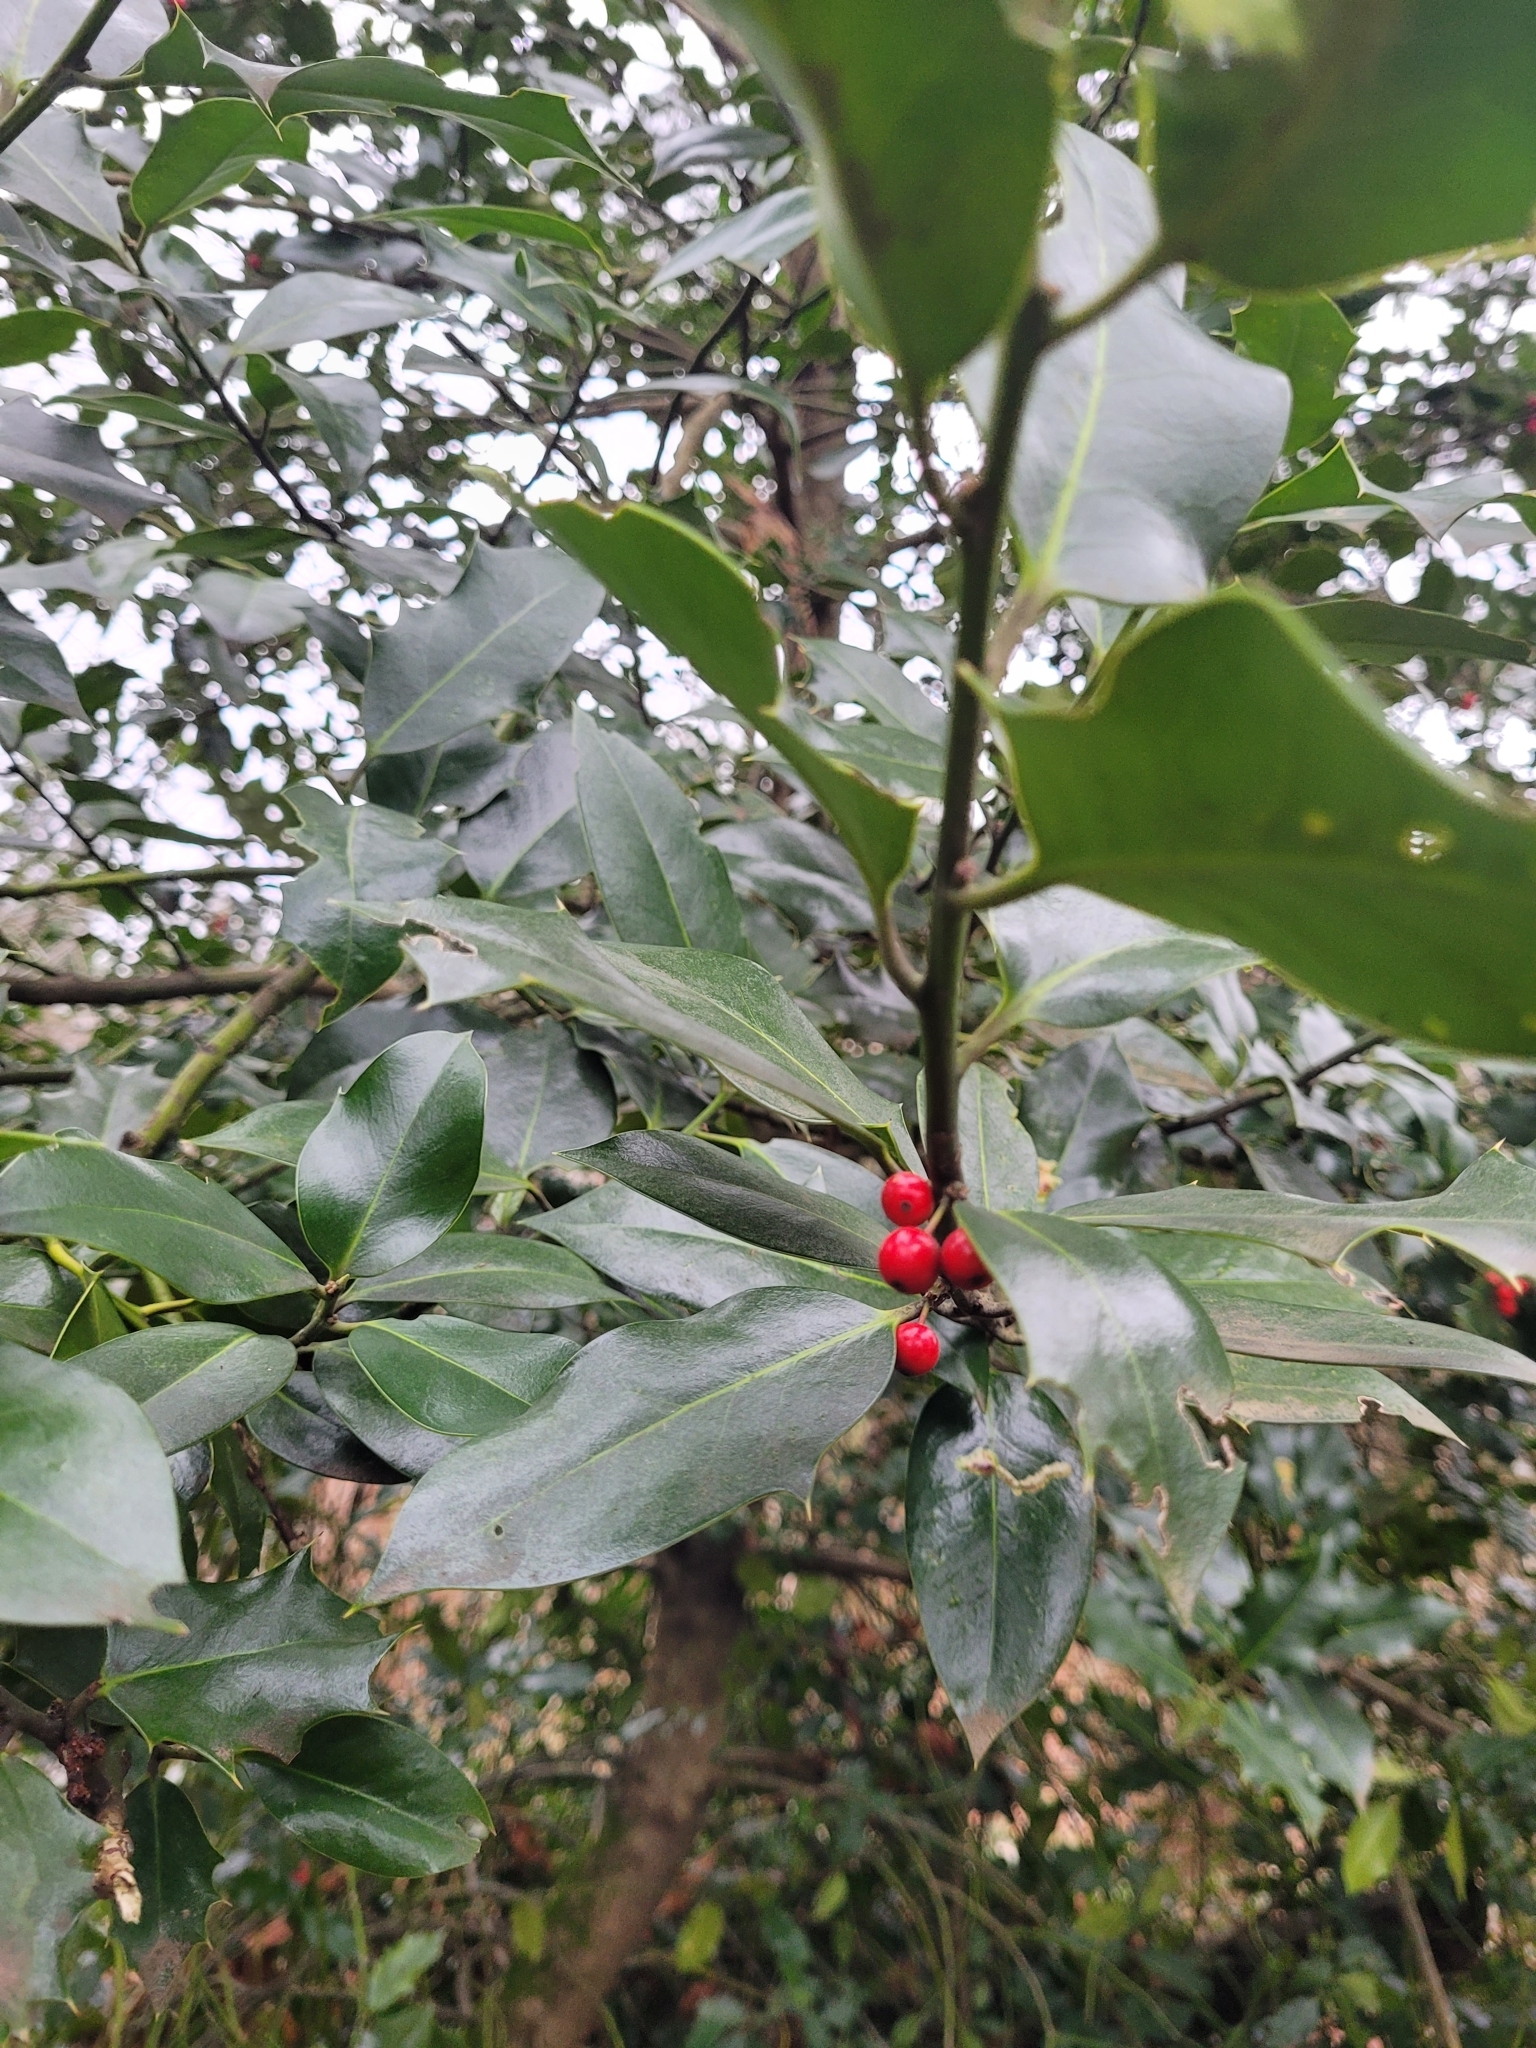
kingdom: Plantae
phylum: Tracheophyta
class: Magnoliopsida
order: Aquifoliales
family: Aquifoliaceae
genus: Ilex
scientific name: Ilex aquifolium
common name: English holly
